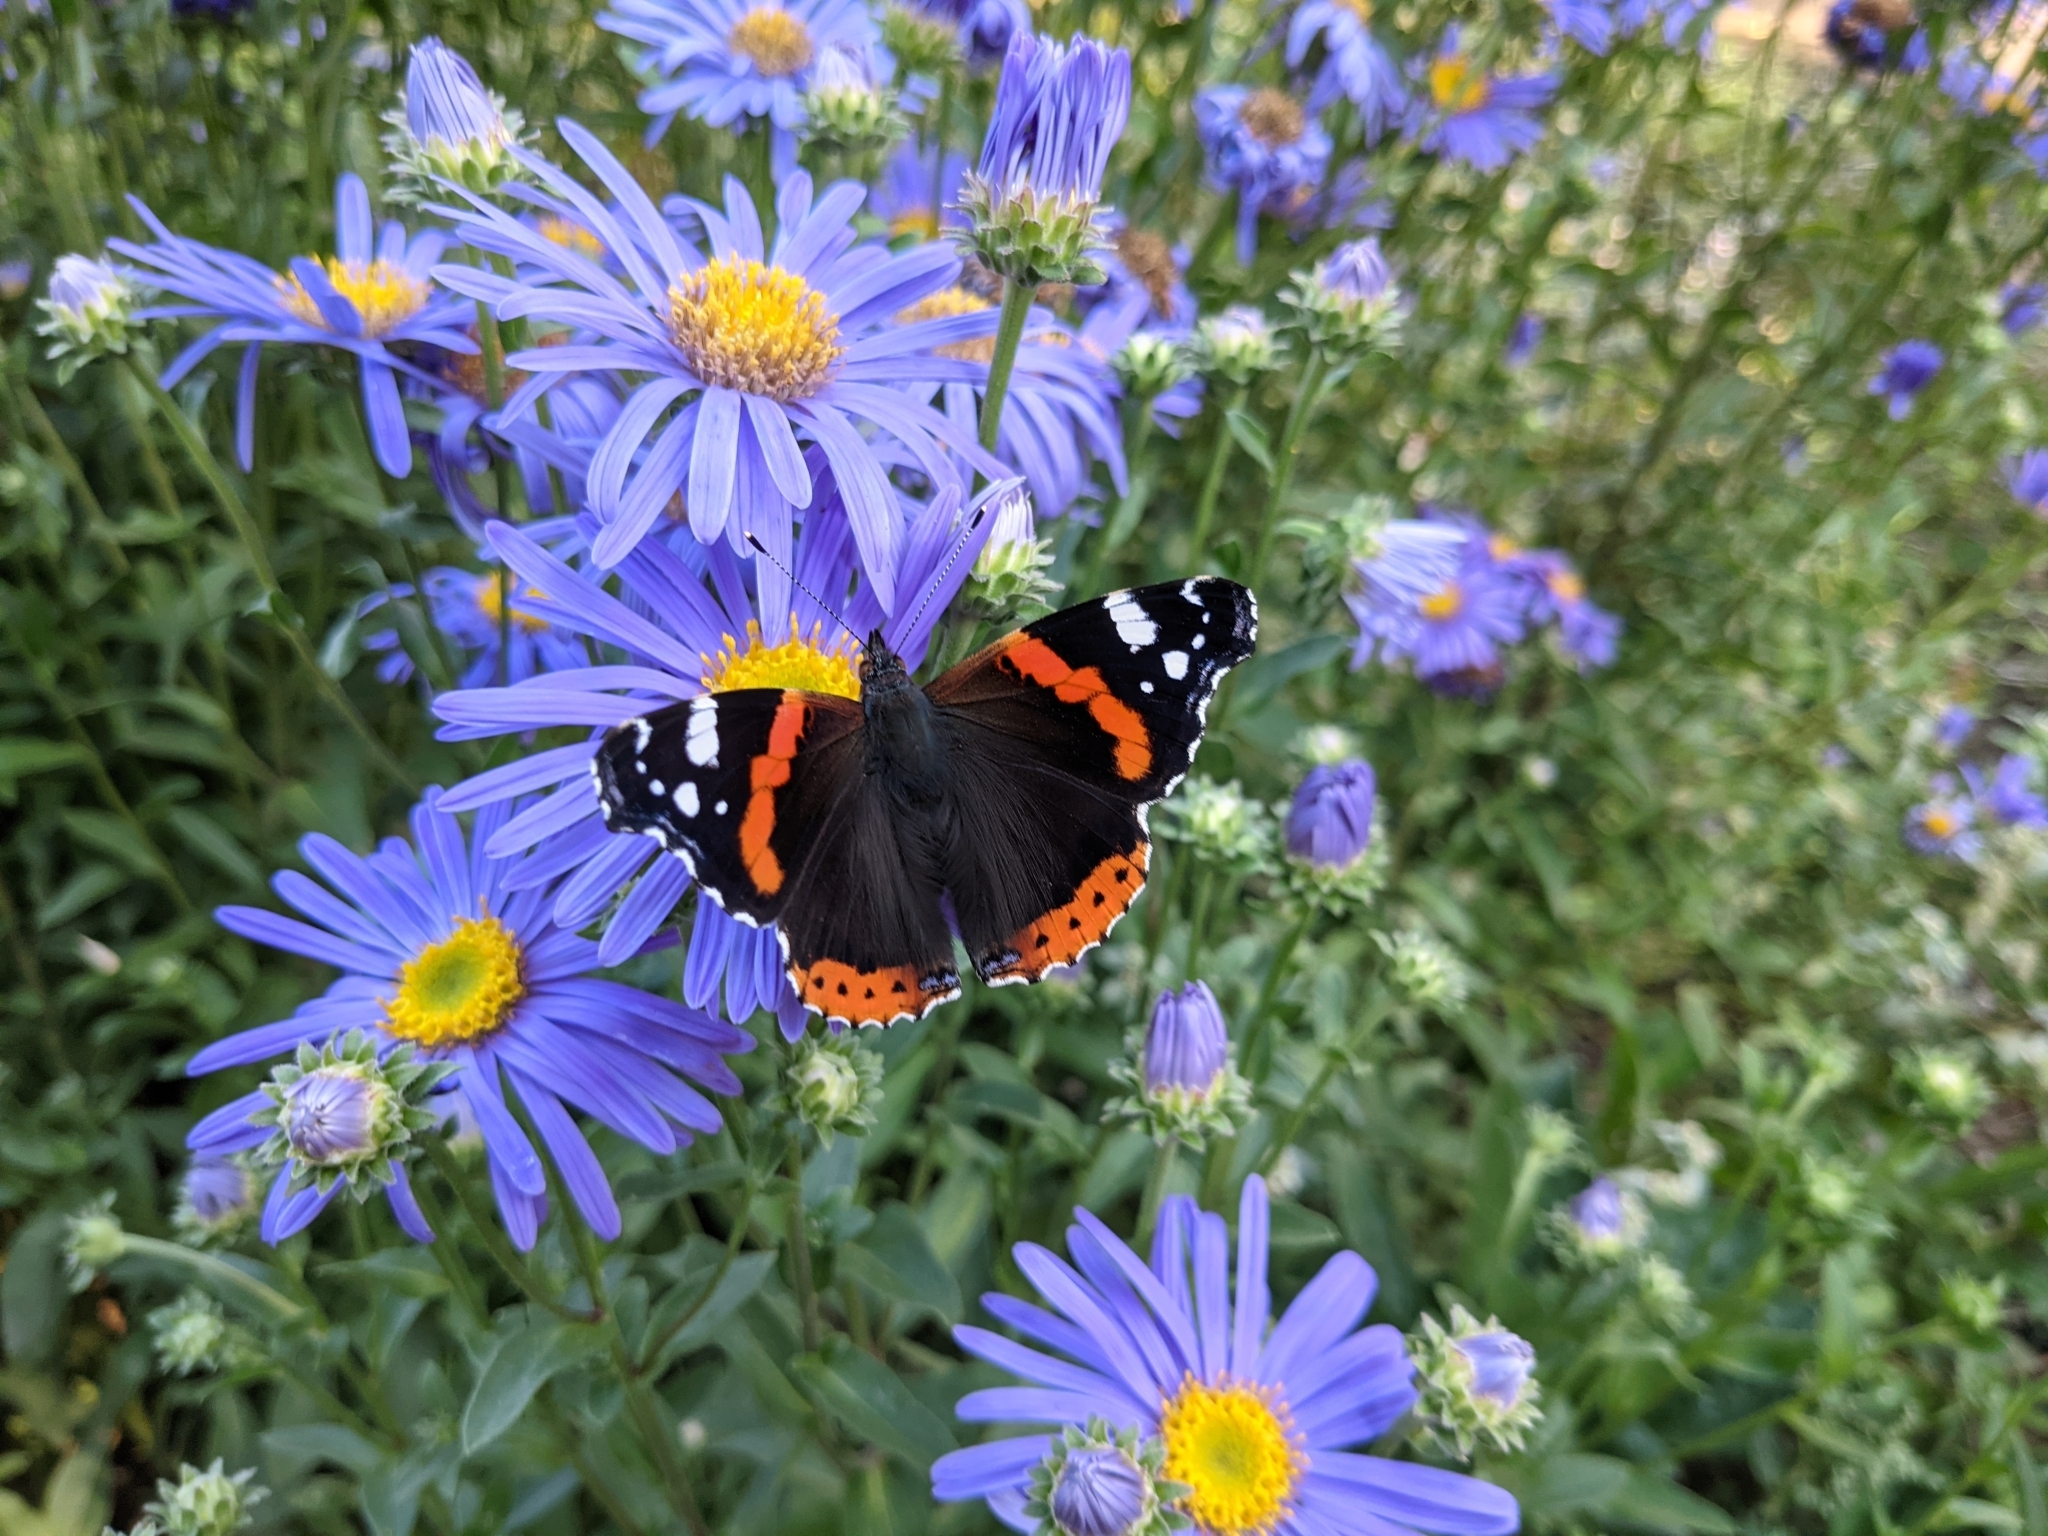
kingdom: Animalia
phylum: Arthropoda
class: Insecta
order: Lepidoptera
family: Nymphalidae
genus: Vanessa
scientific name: Vanessa atalanta
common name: Red admiral
